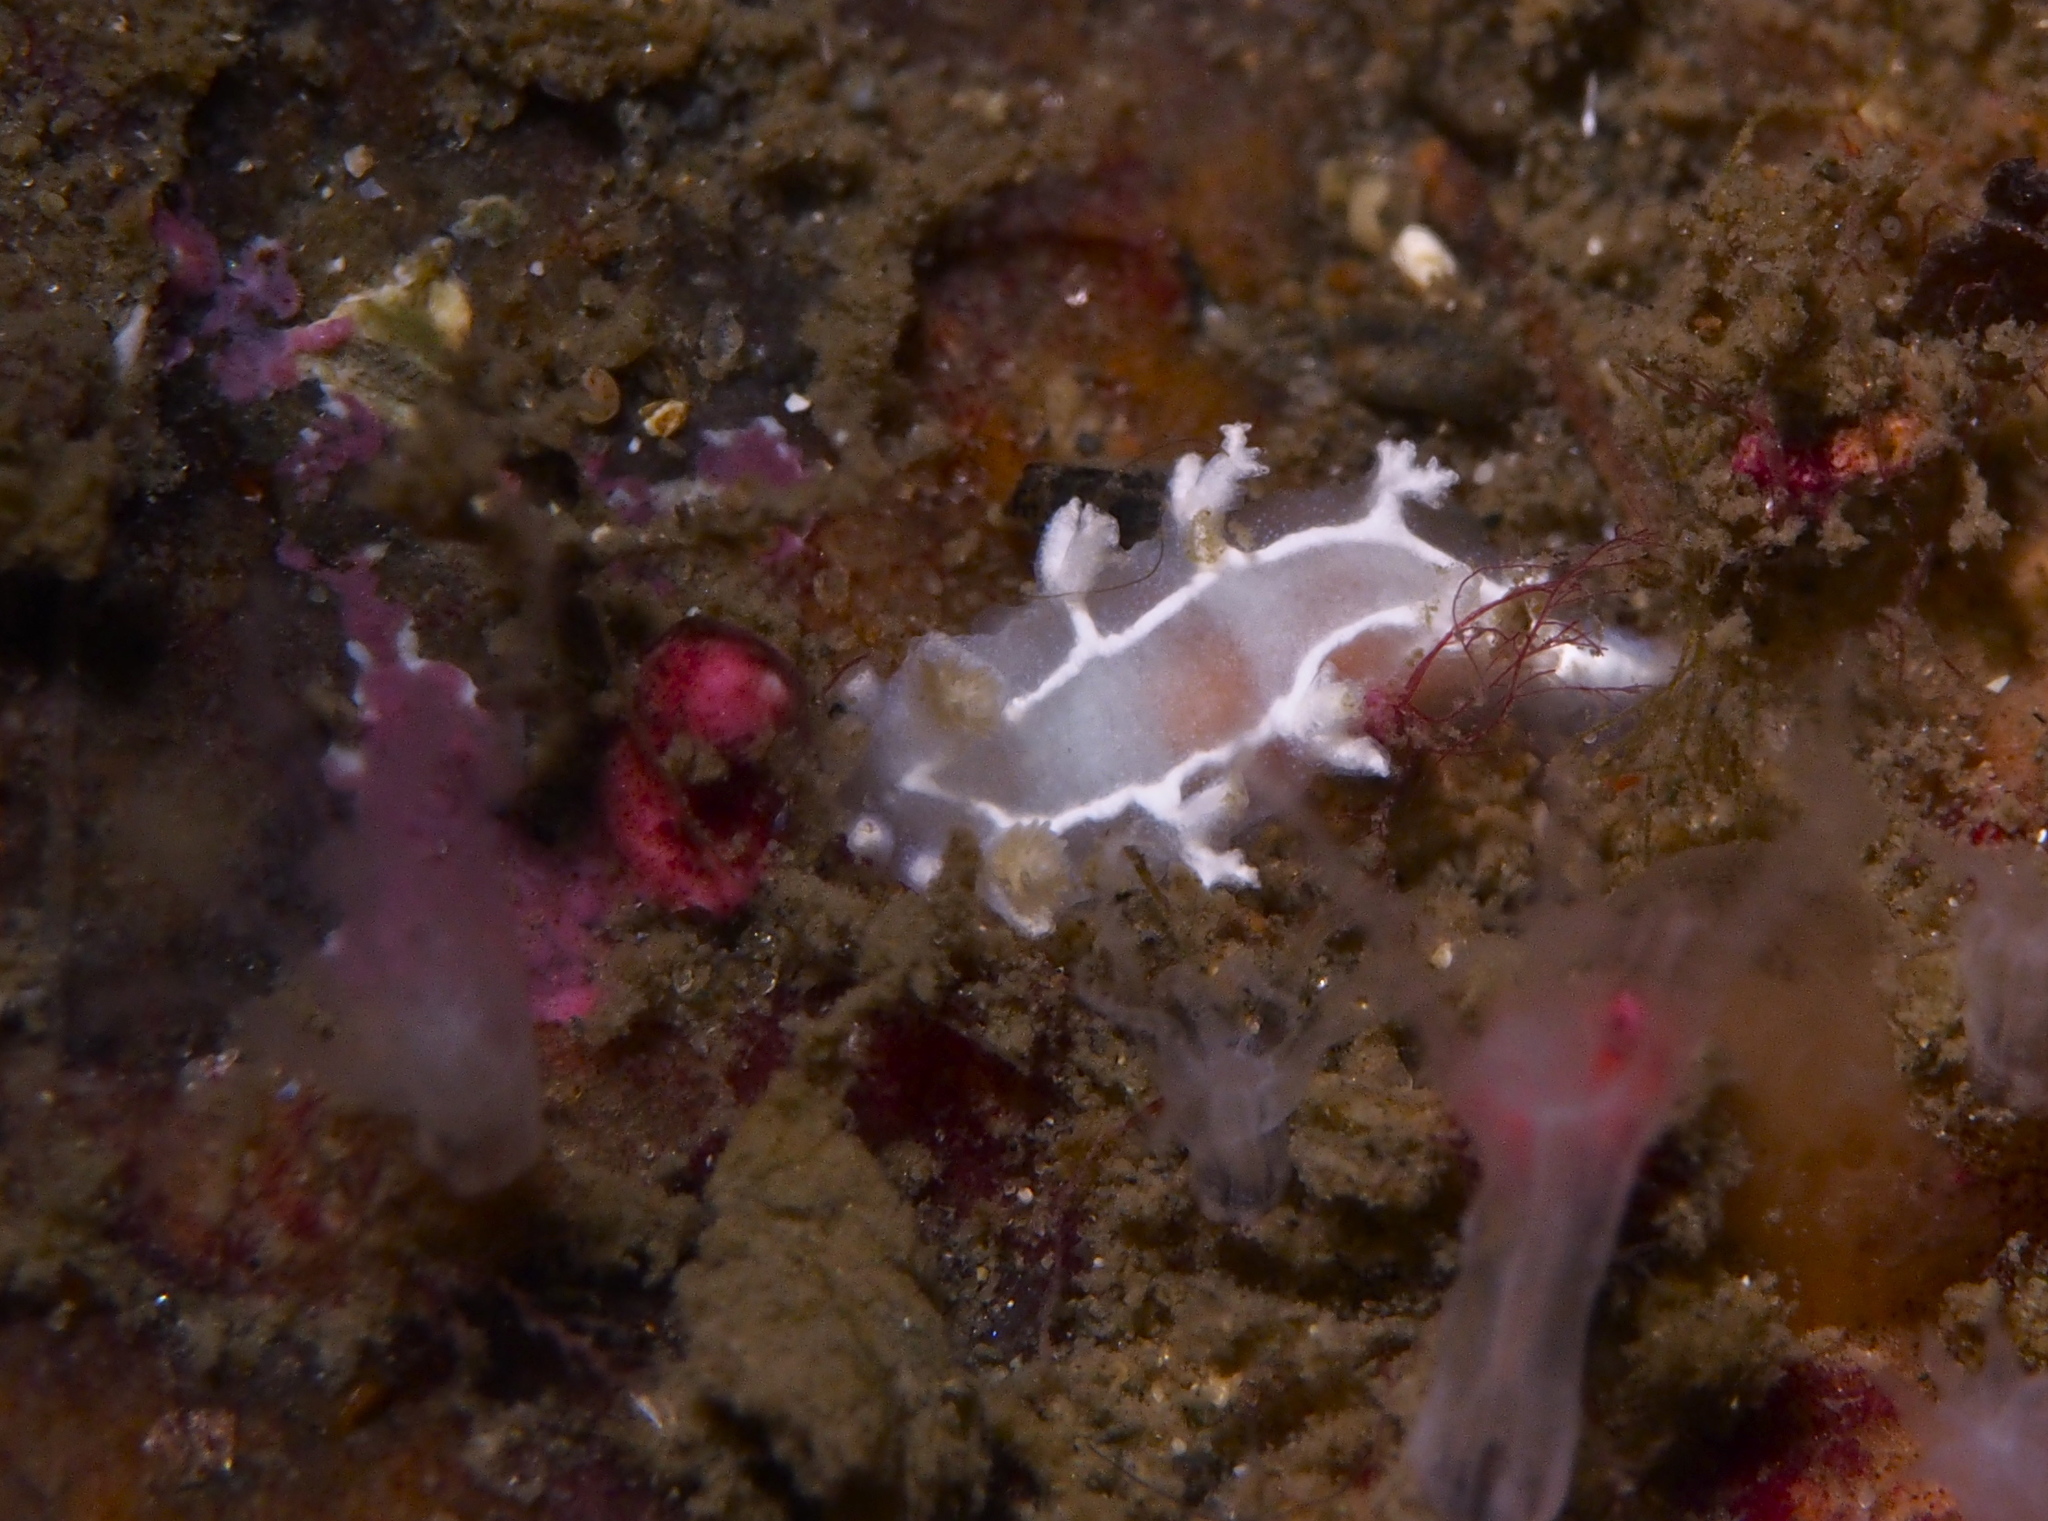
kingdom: Animalia
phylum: Mollusca
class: Gastropoda
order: Nudibranchia
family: Tritoniidae
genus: Duvaucelia
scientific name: Duvaucelia lineata
